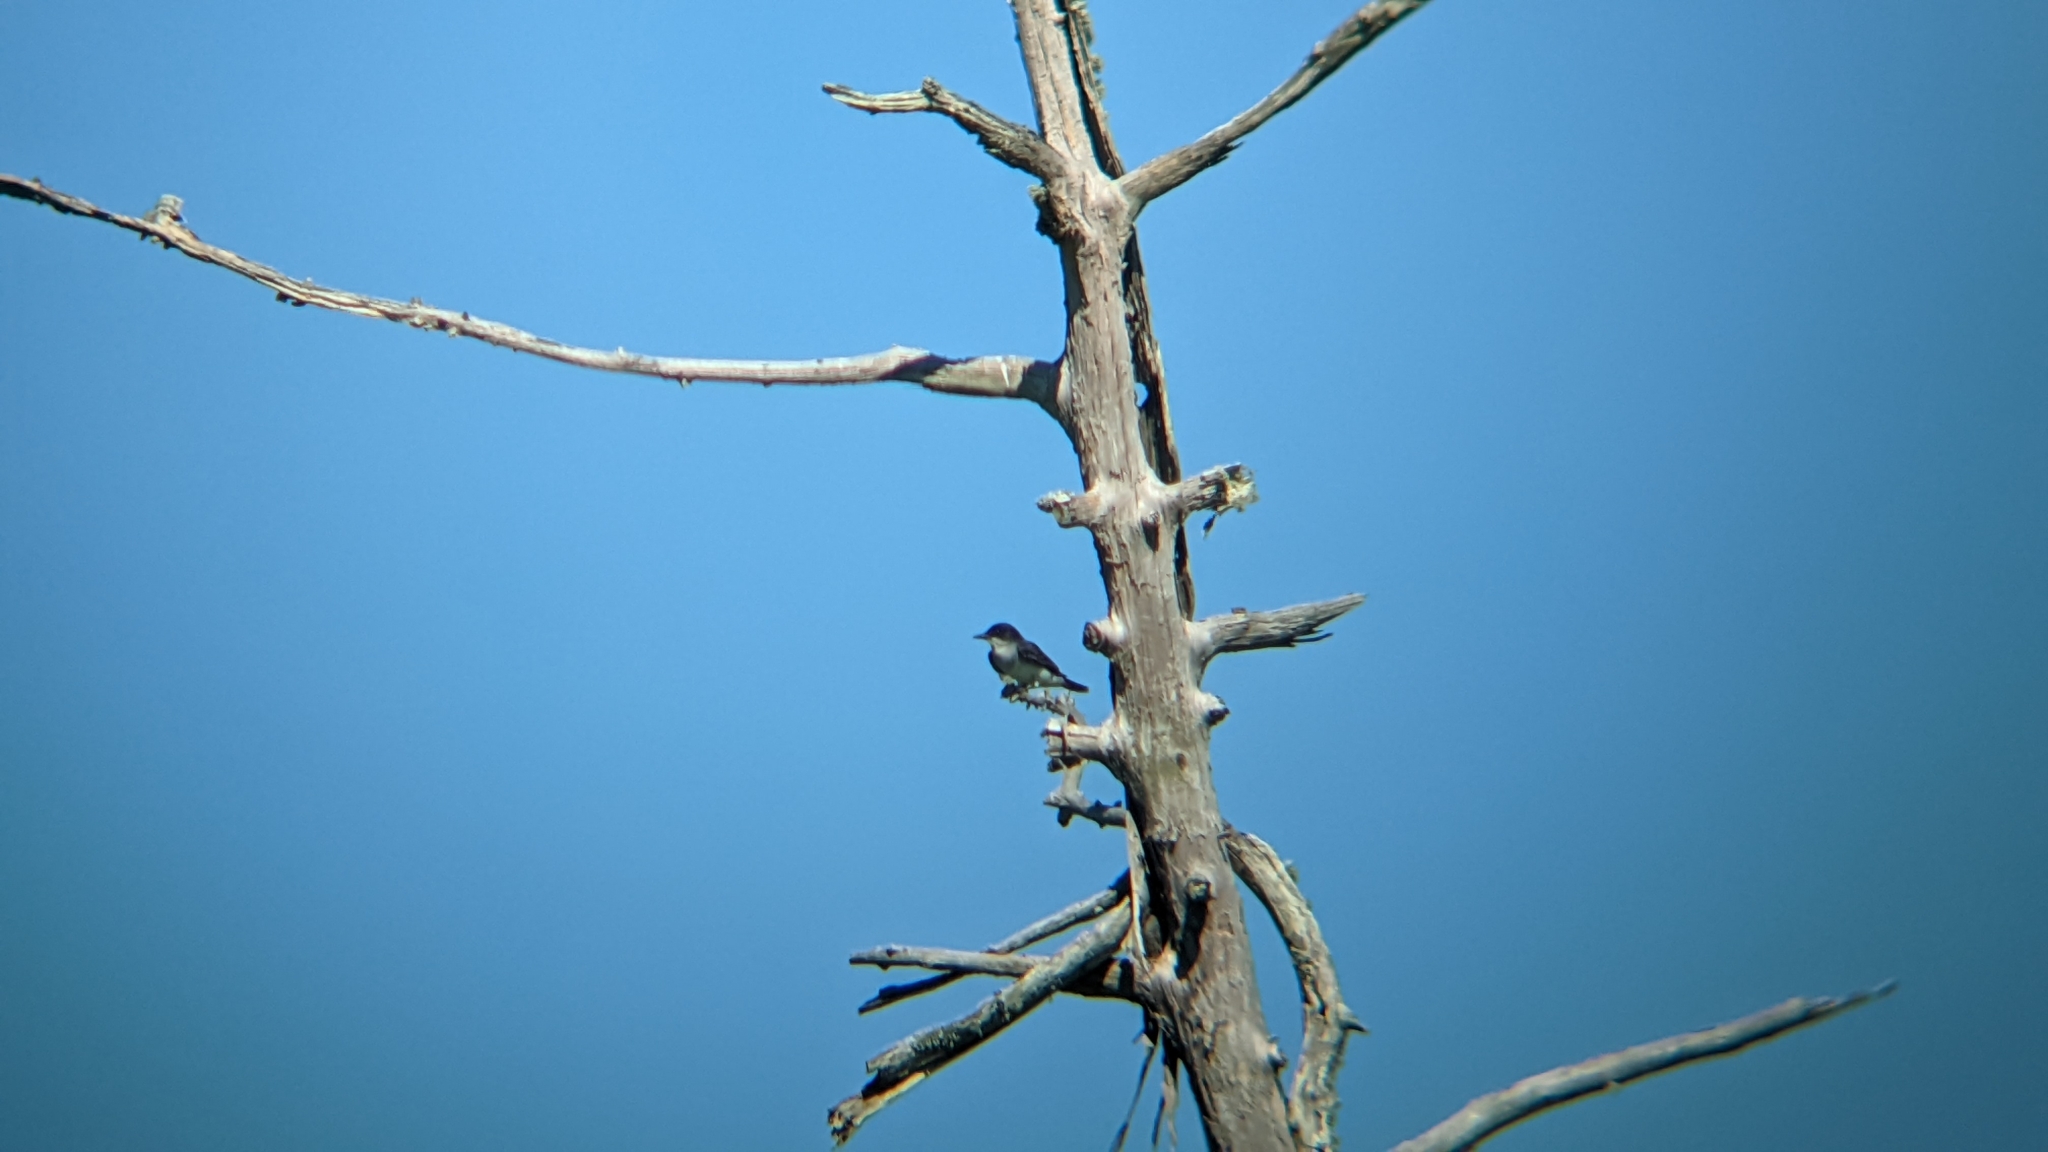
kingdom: Animalia
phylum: Chordata
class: Aves
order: Passeriformes
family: Tyrannidae
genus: Tyrannus
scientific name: Tyrannus tyrannus
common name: Eastern kingbird
